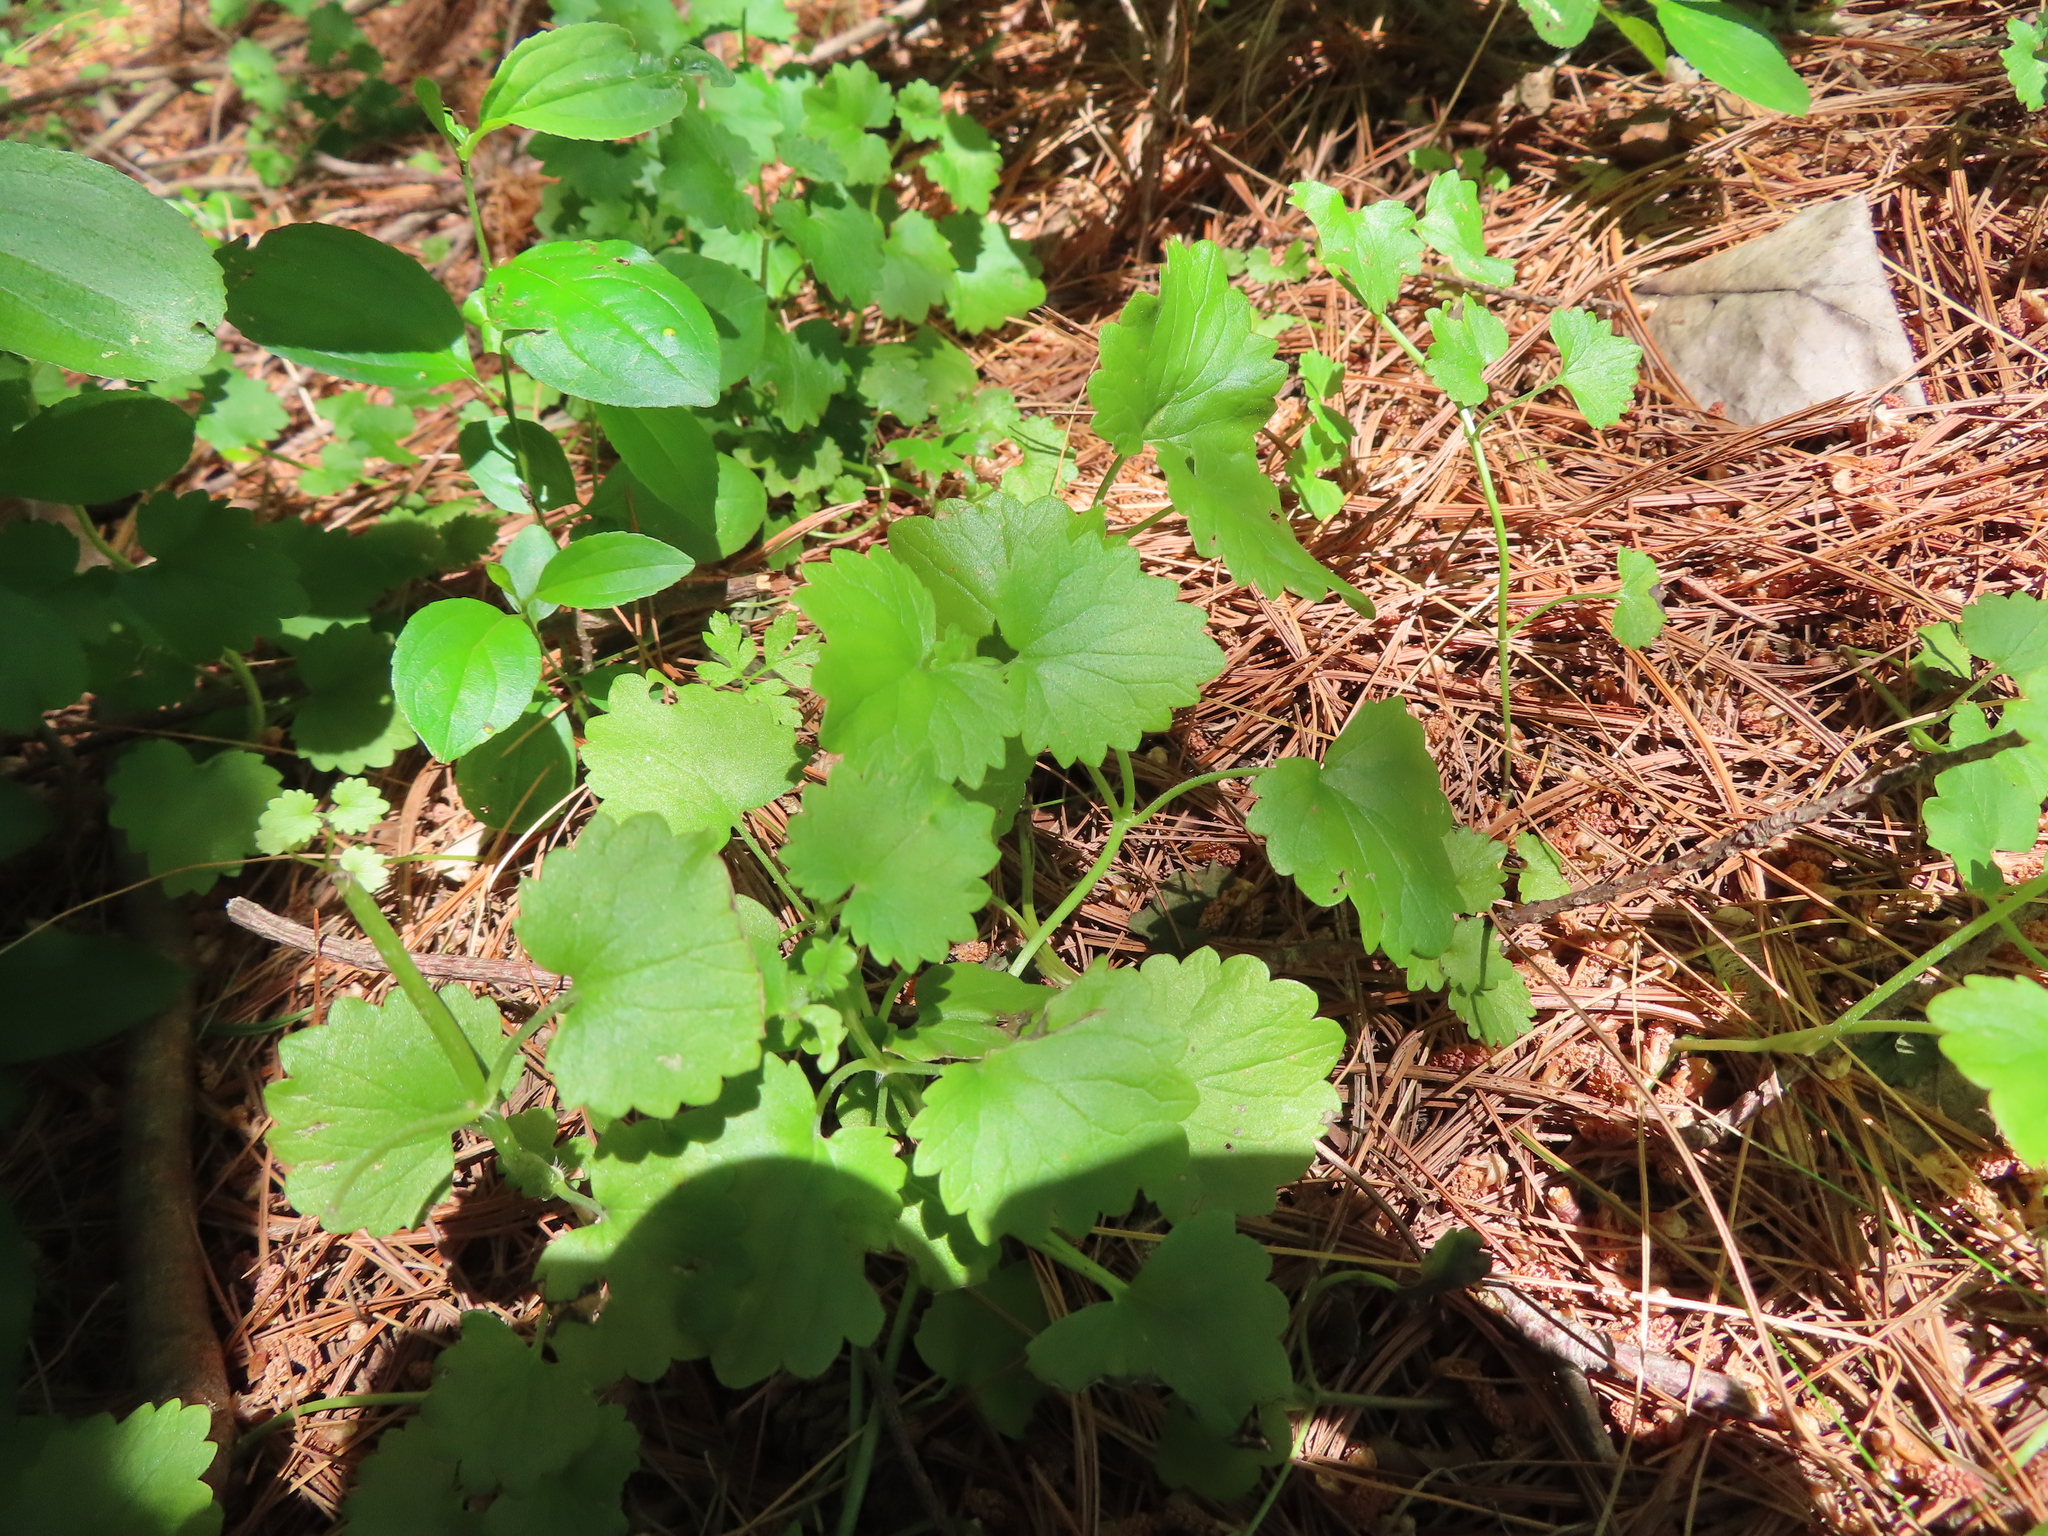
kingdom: Plantae
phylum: Tracheophyta
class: Magnoliopsida
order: Lamiales
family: Lamiaceae
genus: Glechoma
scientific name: Glechoma hederacea
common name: Ground ivy
